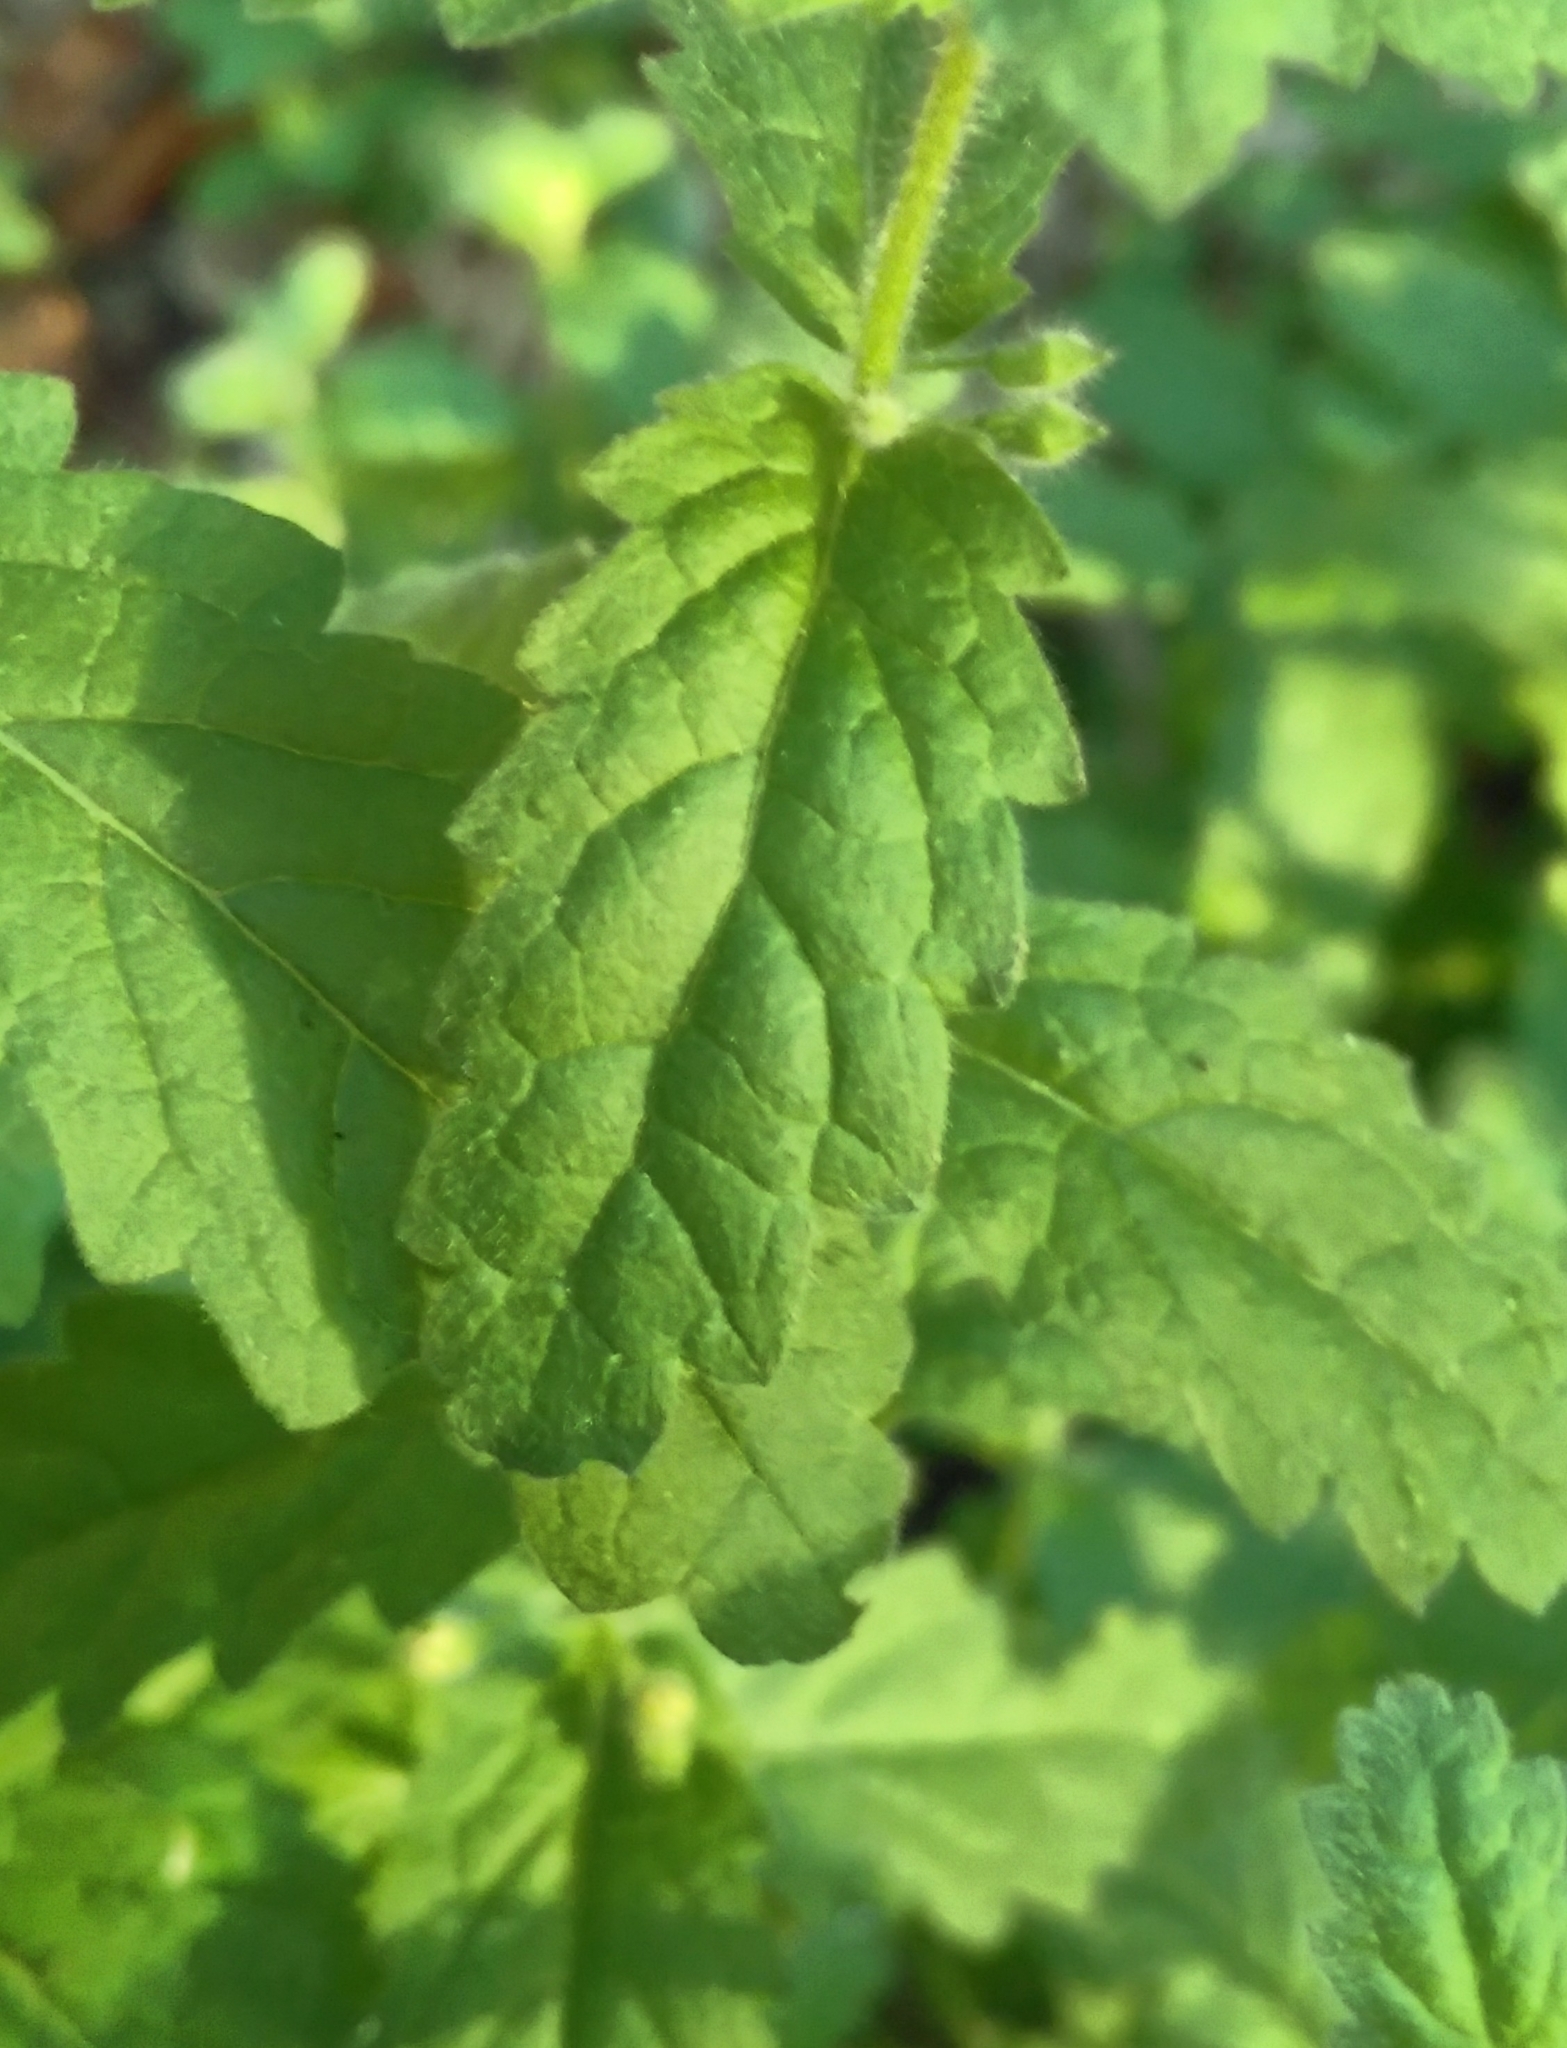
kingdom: Plantae
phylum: Tracheophyta
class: Magnoliopsida
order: Lamiales
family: Lamiaceae
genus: Teucrium
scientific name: Teucrium scordium
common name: Water germander
